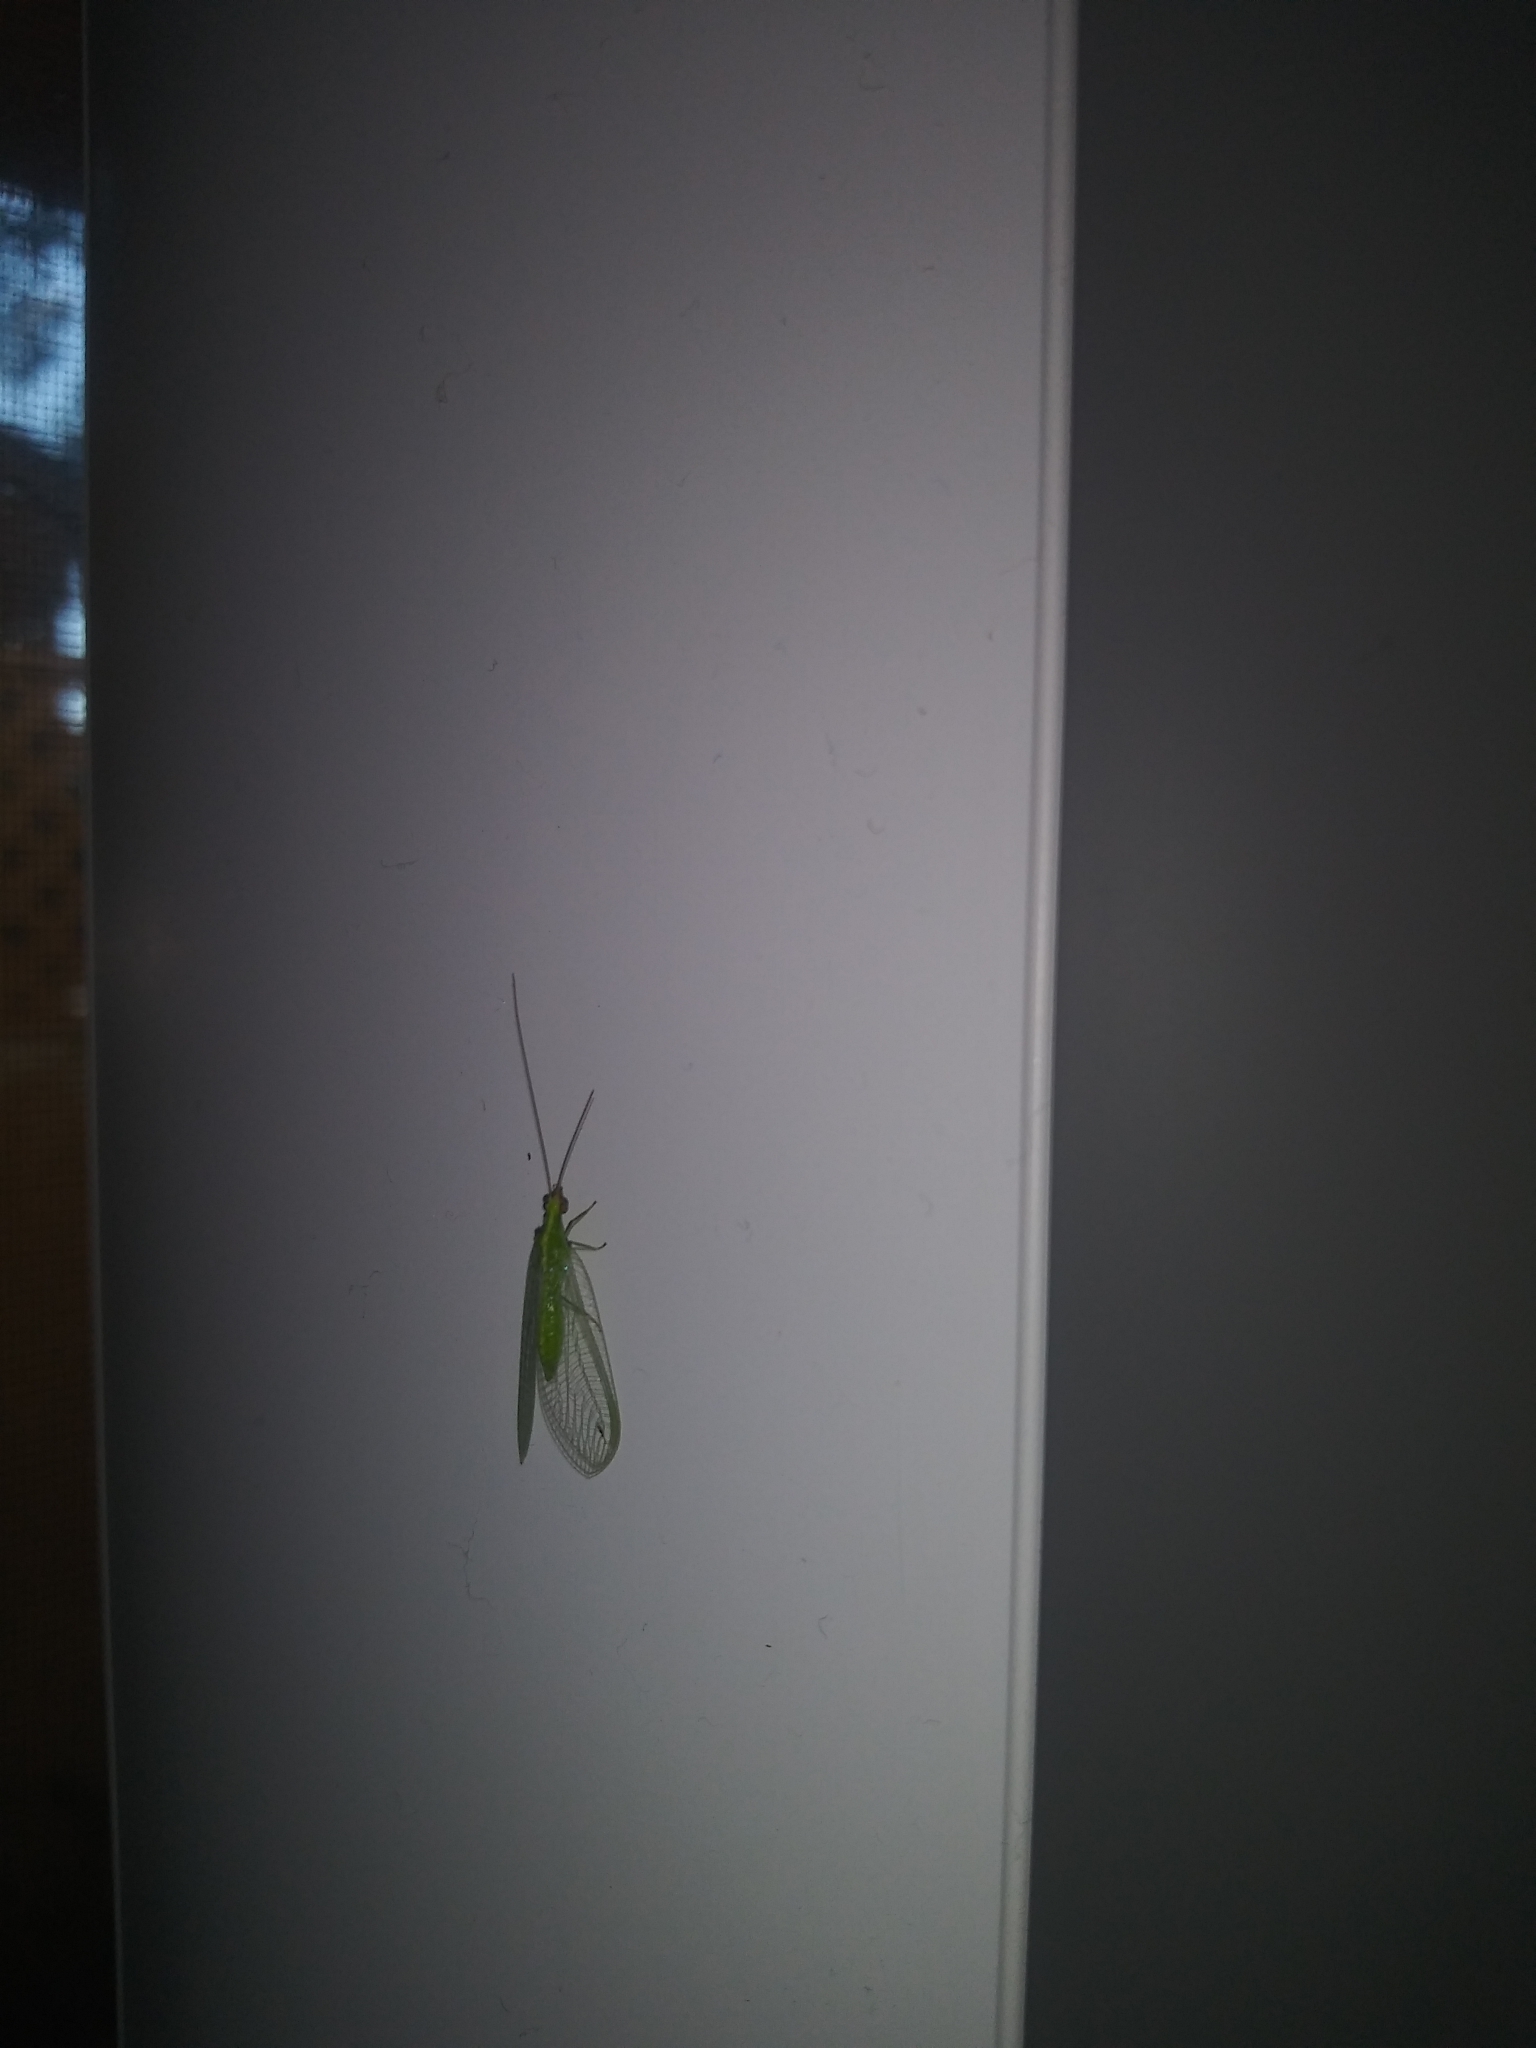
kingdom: Animalia
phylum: Arthropoda
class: Insecta
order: Neuroptera
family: Chrysopidae
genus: Chrysoperla
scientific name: Chrysoperla
